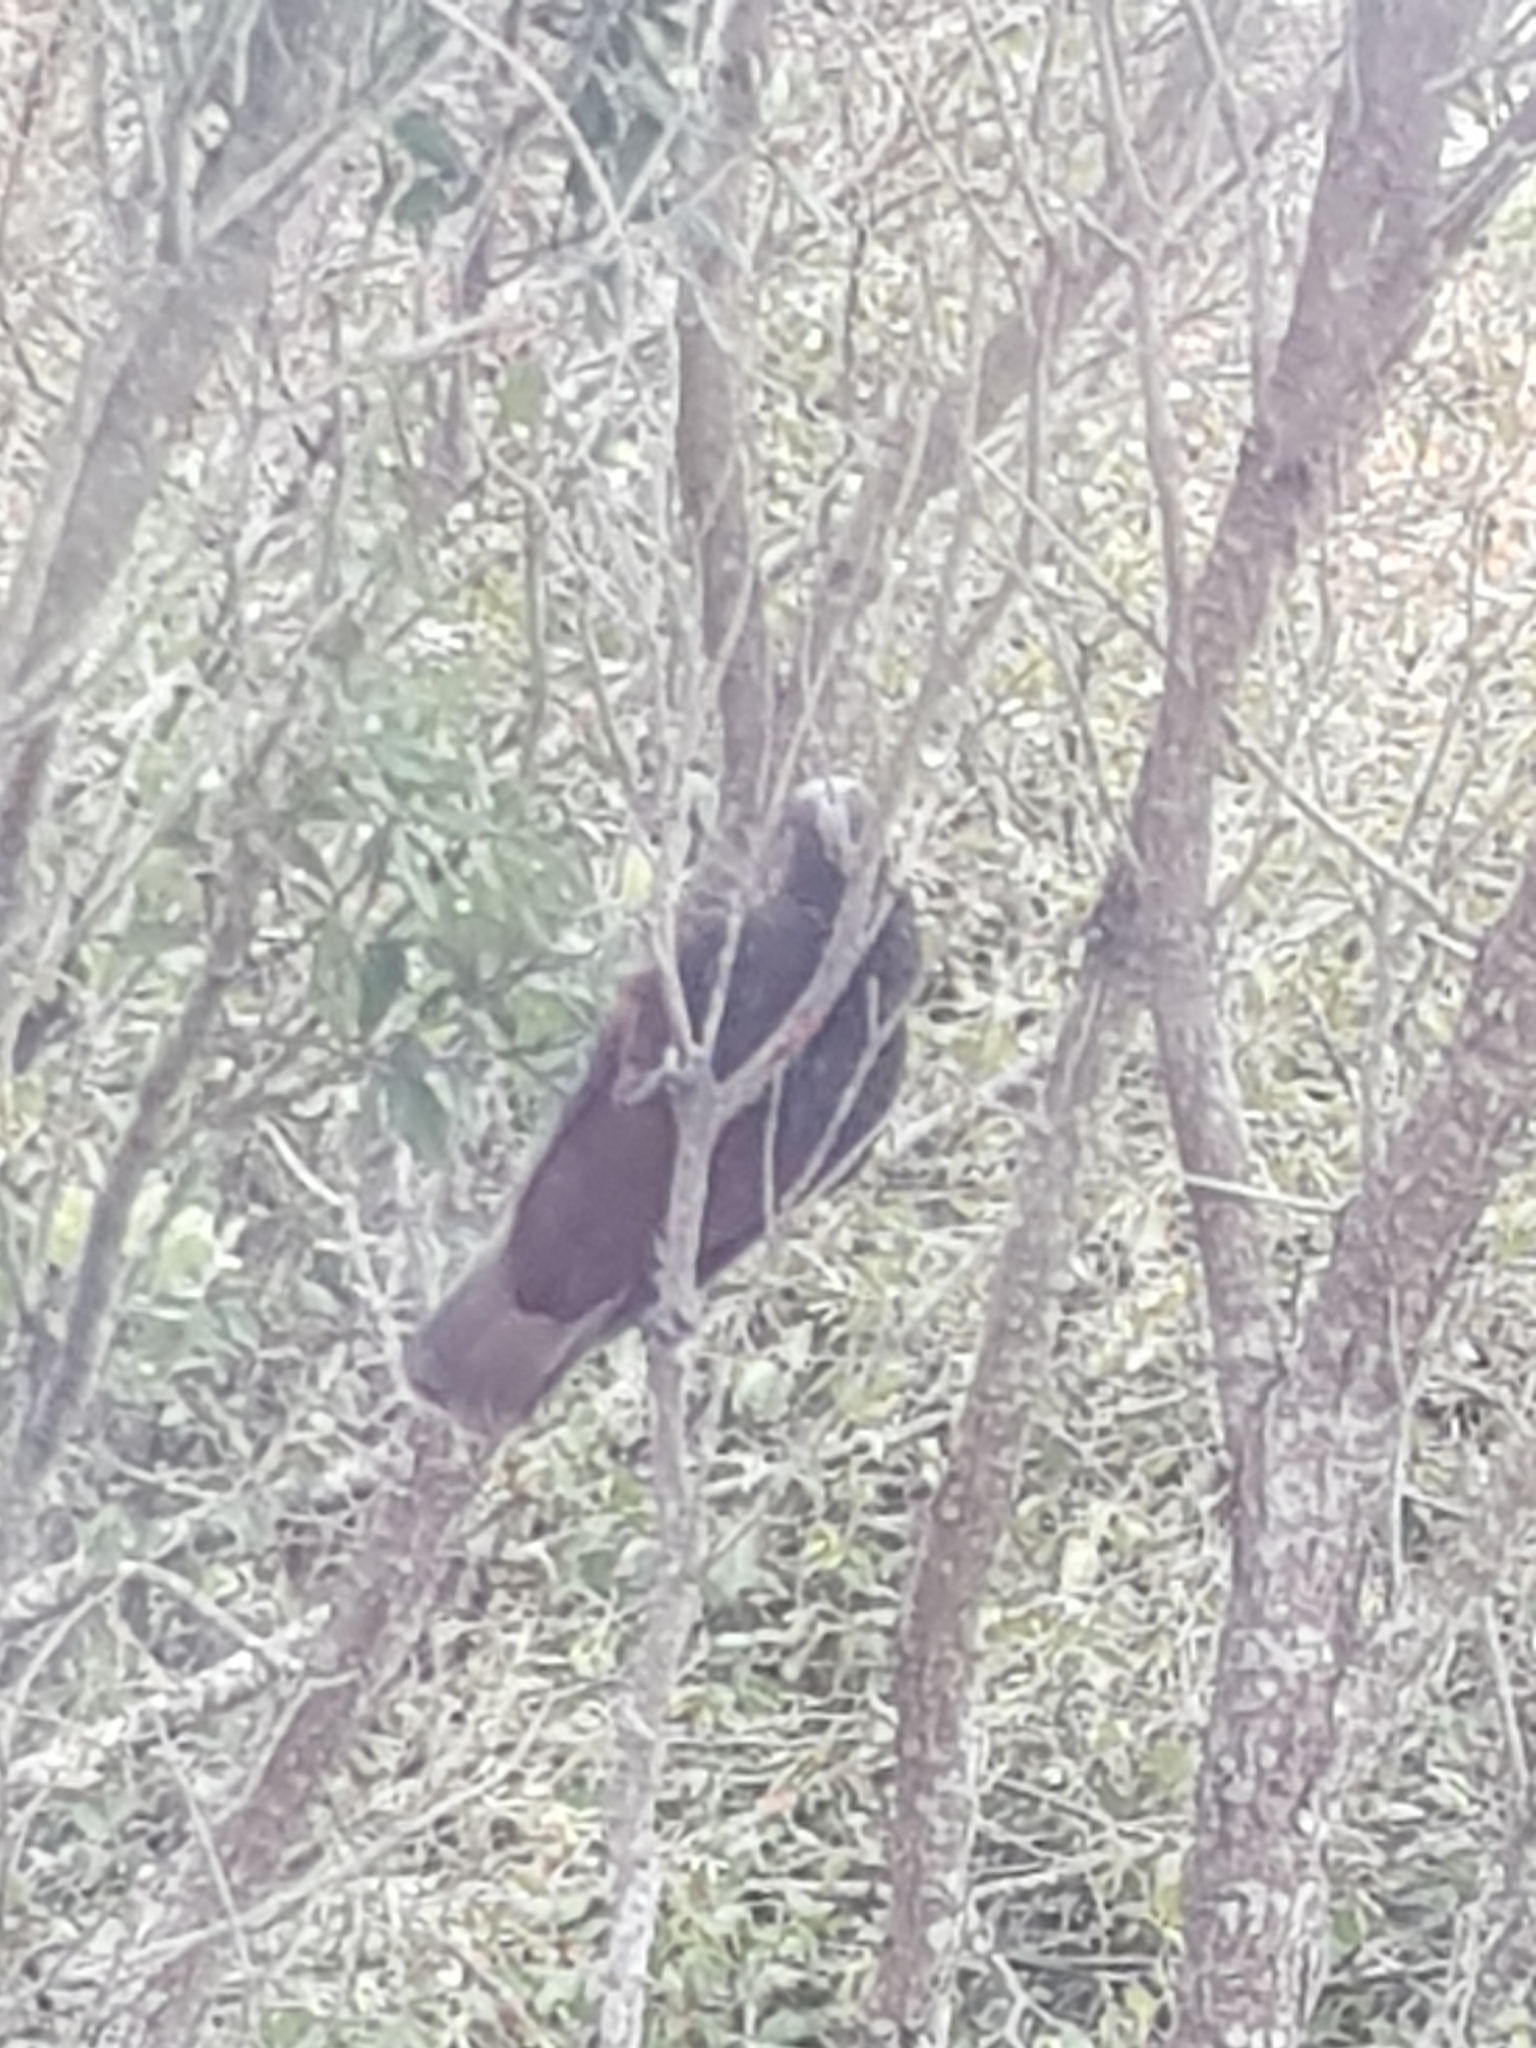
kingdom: Animalia
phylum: Chordata
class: Aves
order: Psittaciformes
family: Psittacidae
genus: Nestor
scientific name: Nestor meridionalis
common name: New zealand kaka
